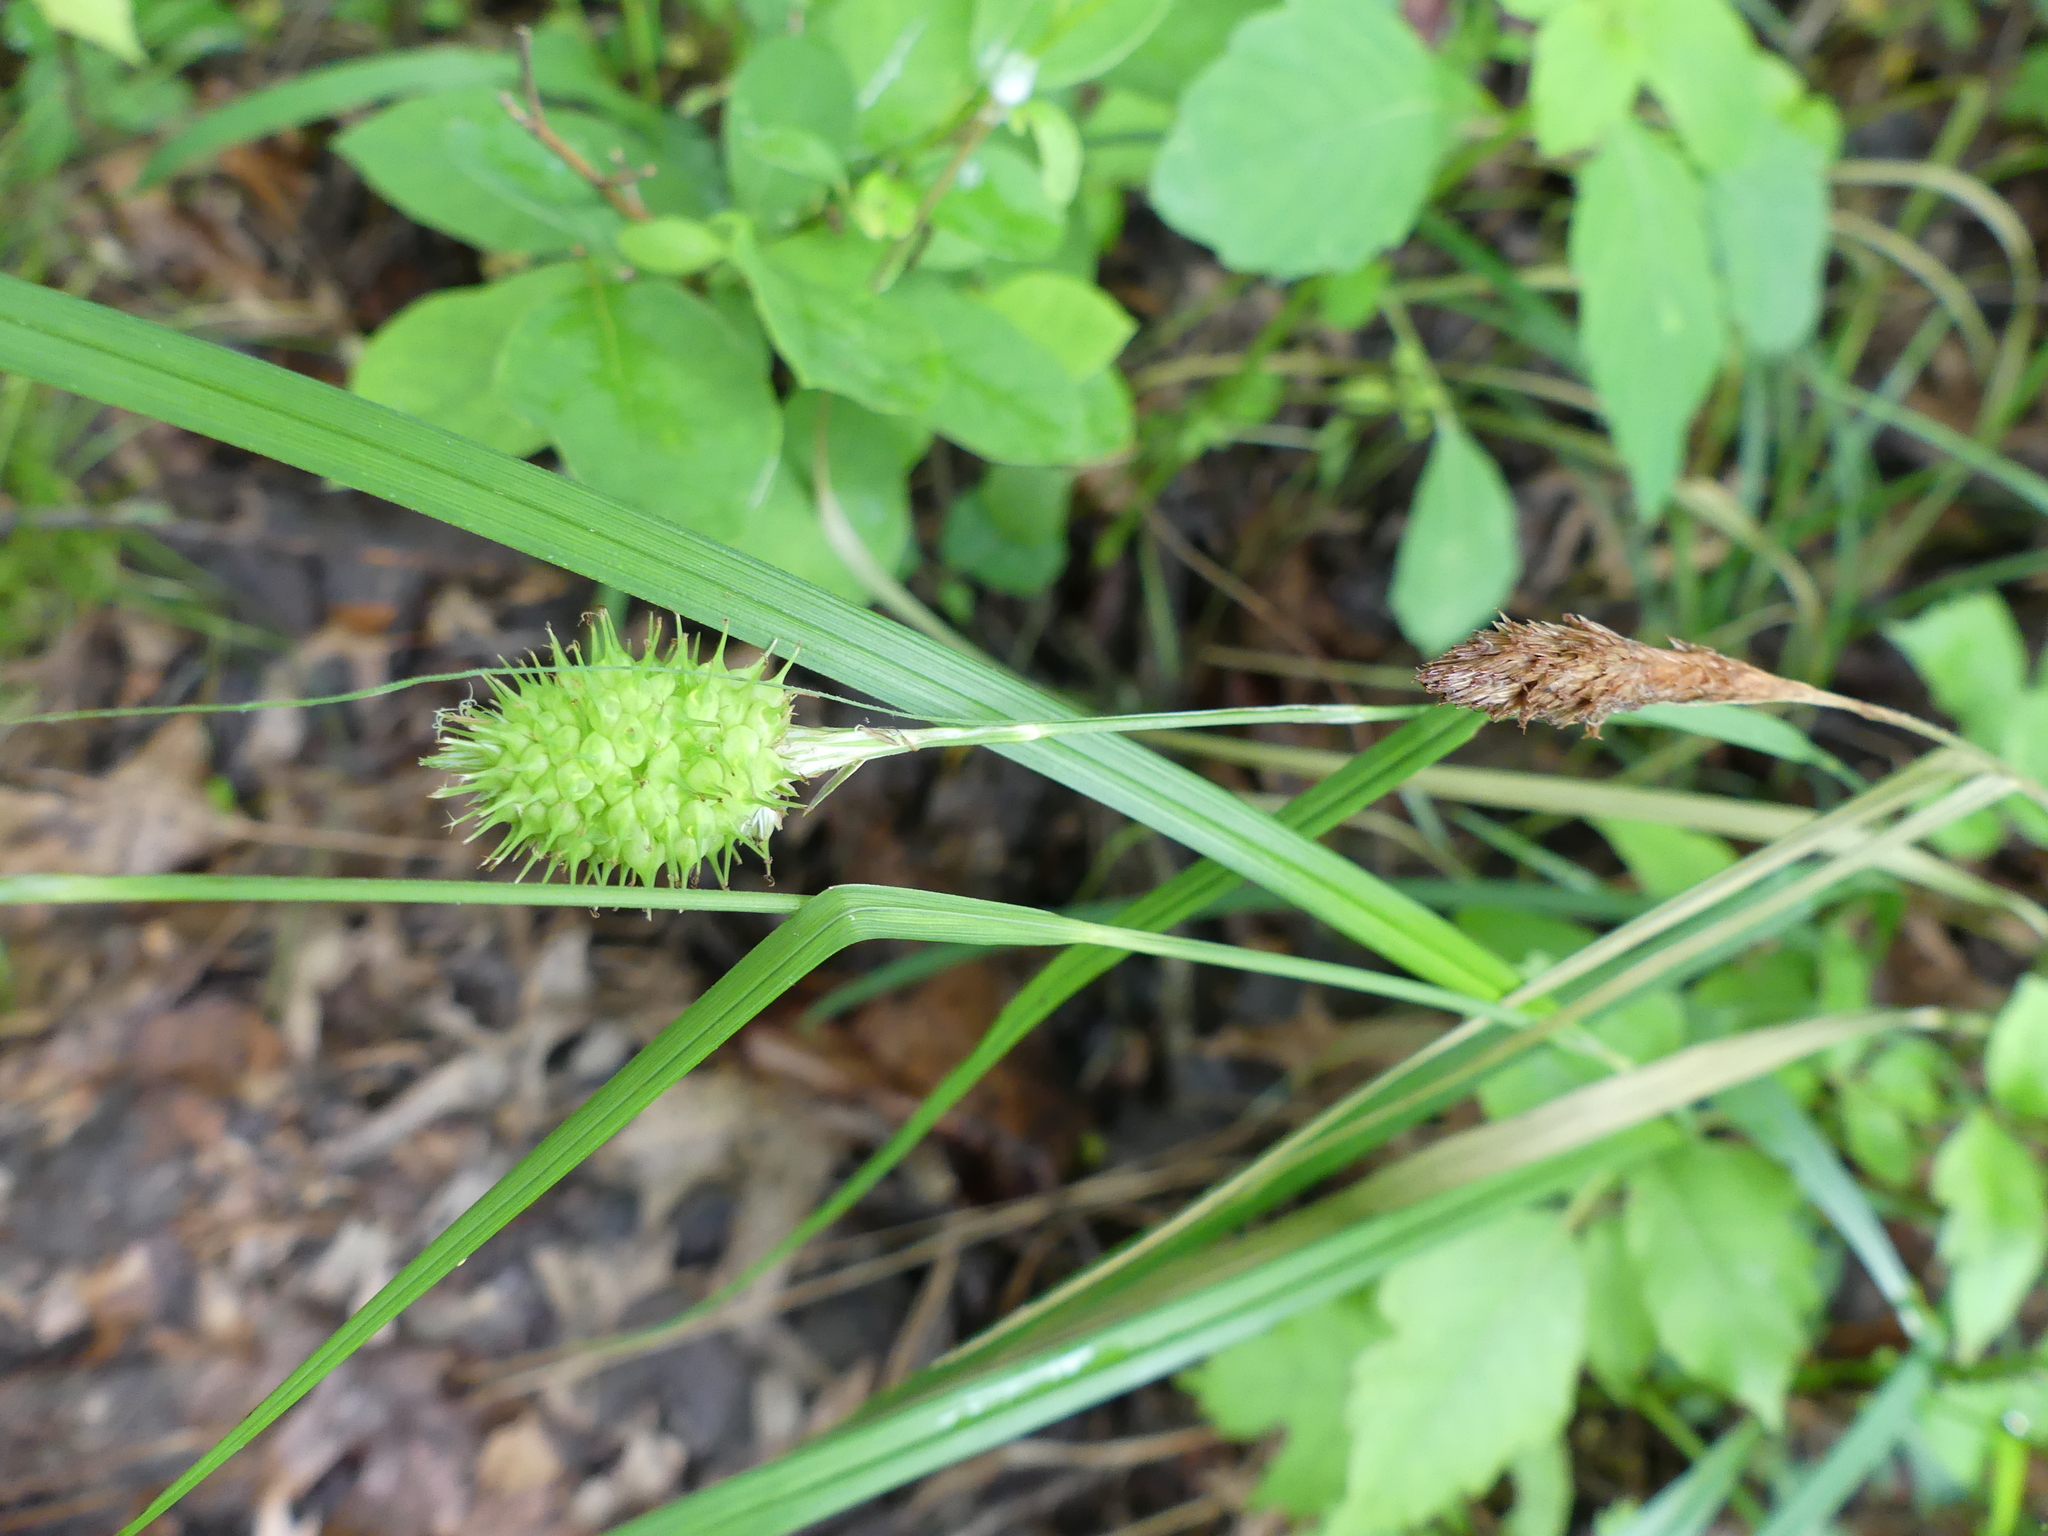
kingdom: Plantae
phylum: Tracheophyta
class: Liliopsida
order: Poales
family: Cyperaceae
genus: Carex
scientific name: Carex squarrosa
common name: Narrow-leaved cattail sedge
